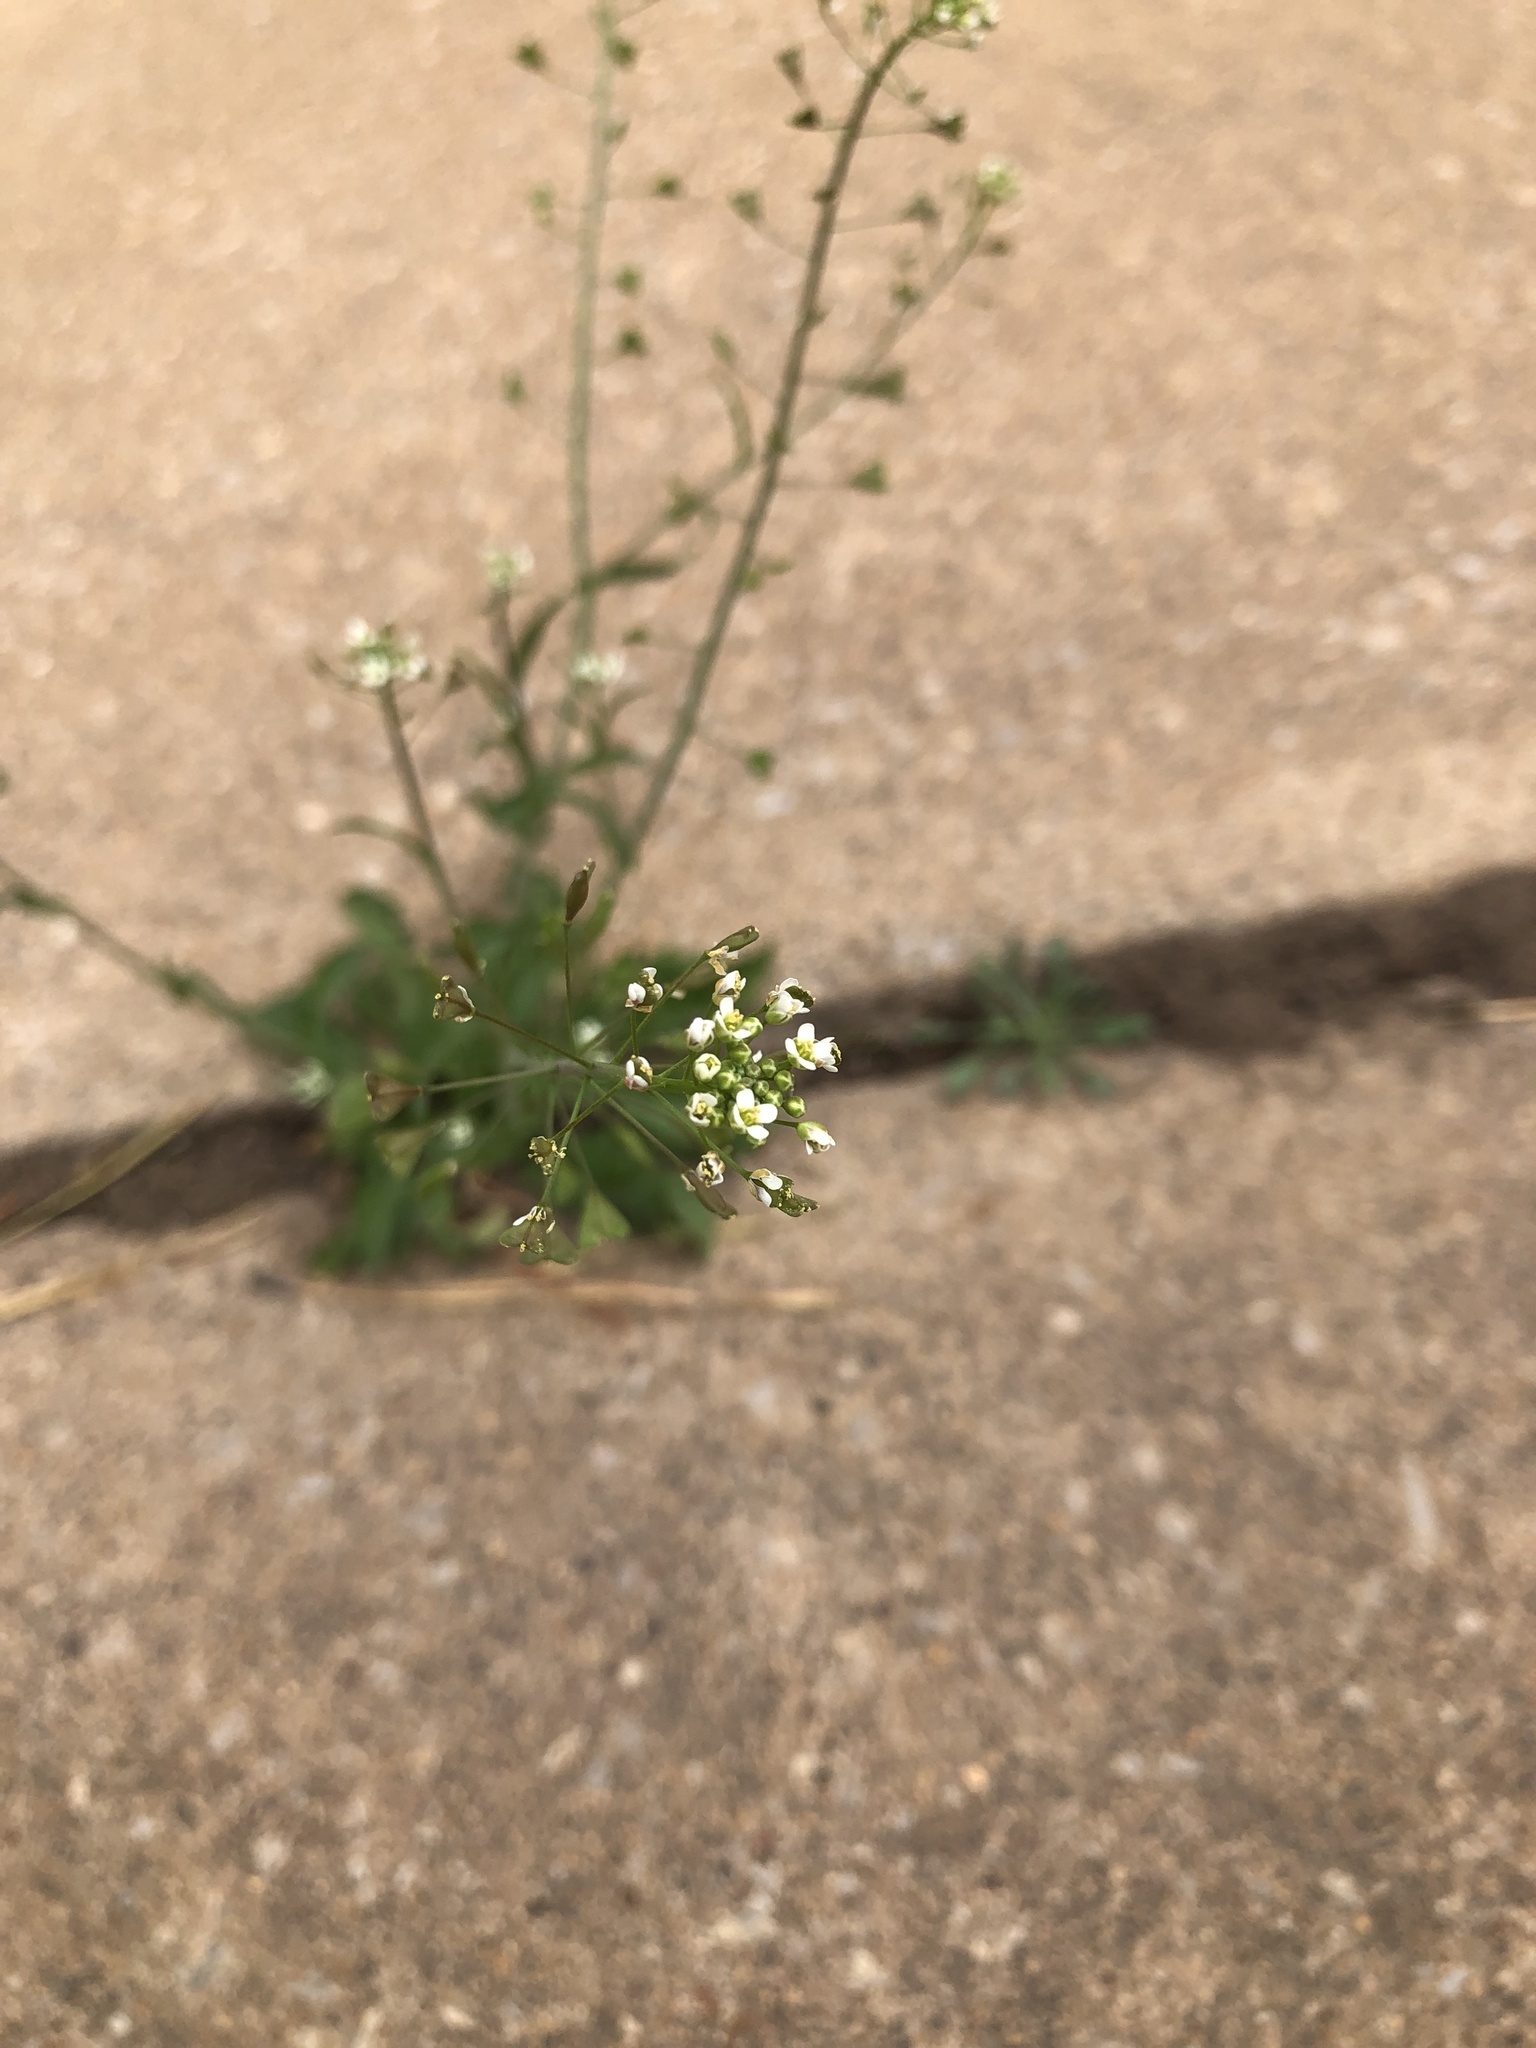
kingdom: Plantae
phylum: Tracheophyta
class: Magnoliopsida
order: Brassicales
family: Brassicaceae
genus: Capsella
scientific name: Capsella bursa-pastoris
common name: Shepherd's purse
